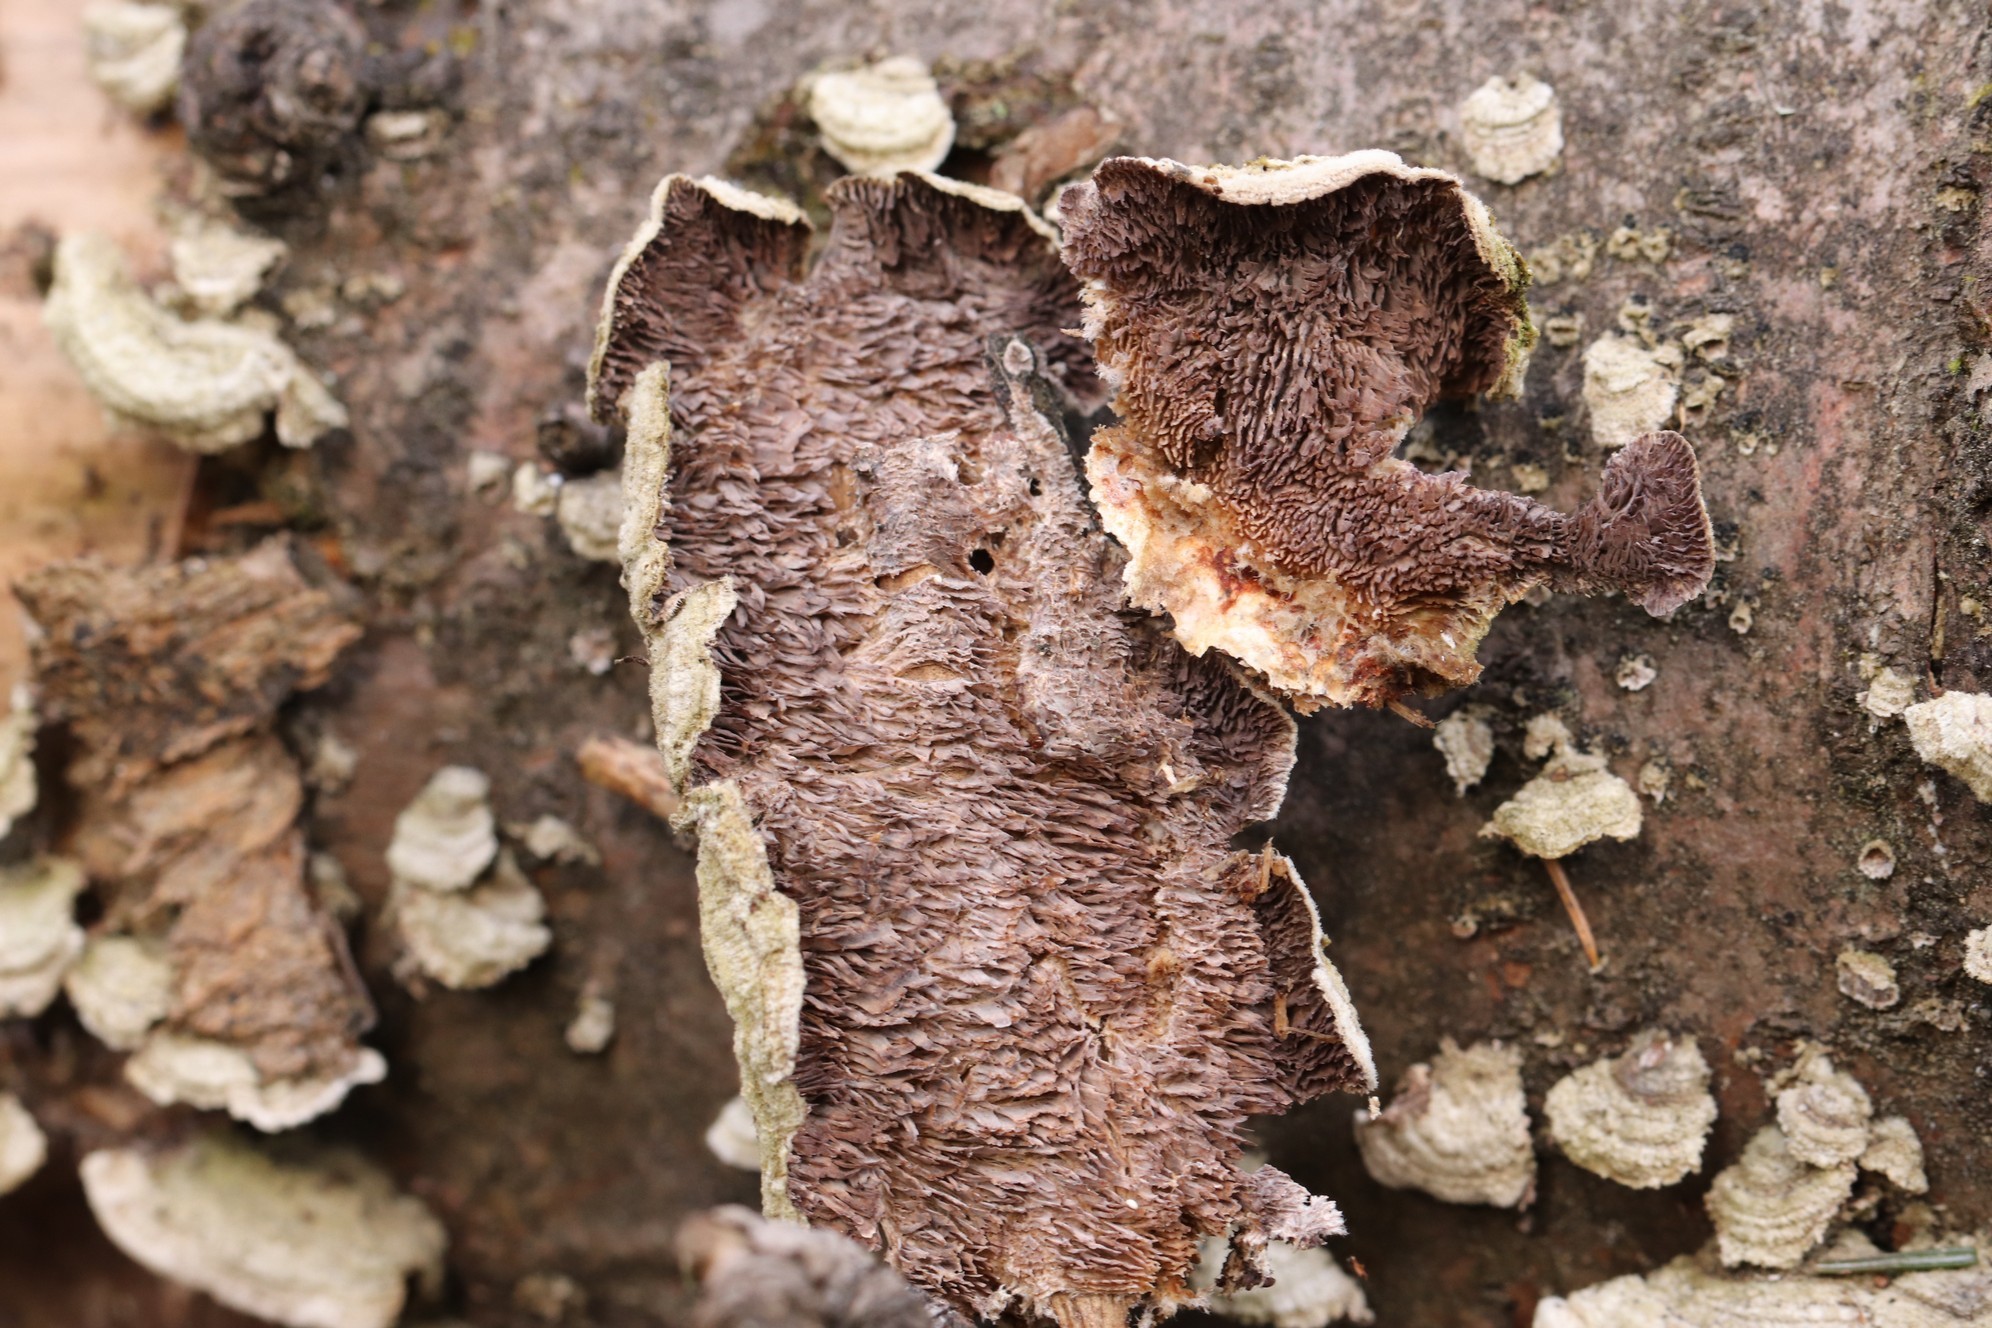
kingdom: Fungi
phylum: Basidiomycota
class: Agaricomycetes
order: Hymenochaetales
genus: Trichaptum
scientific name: Trichaptum fuscoviolaceum
